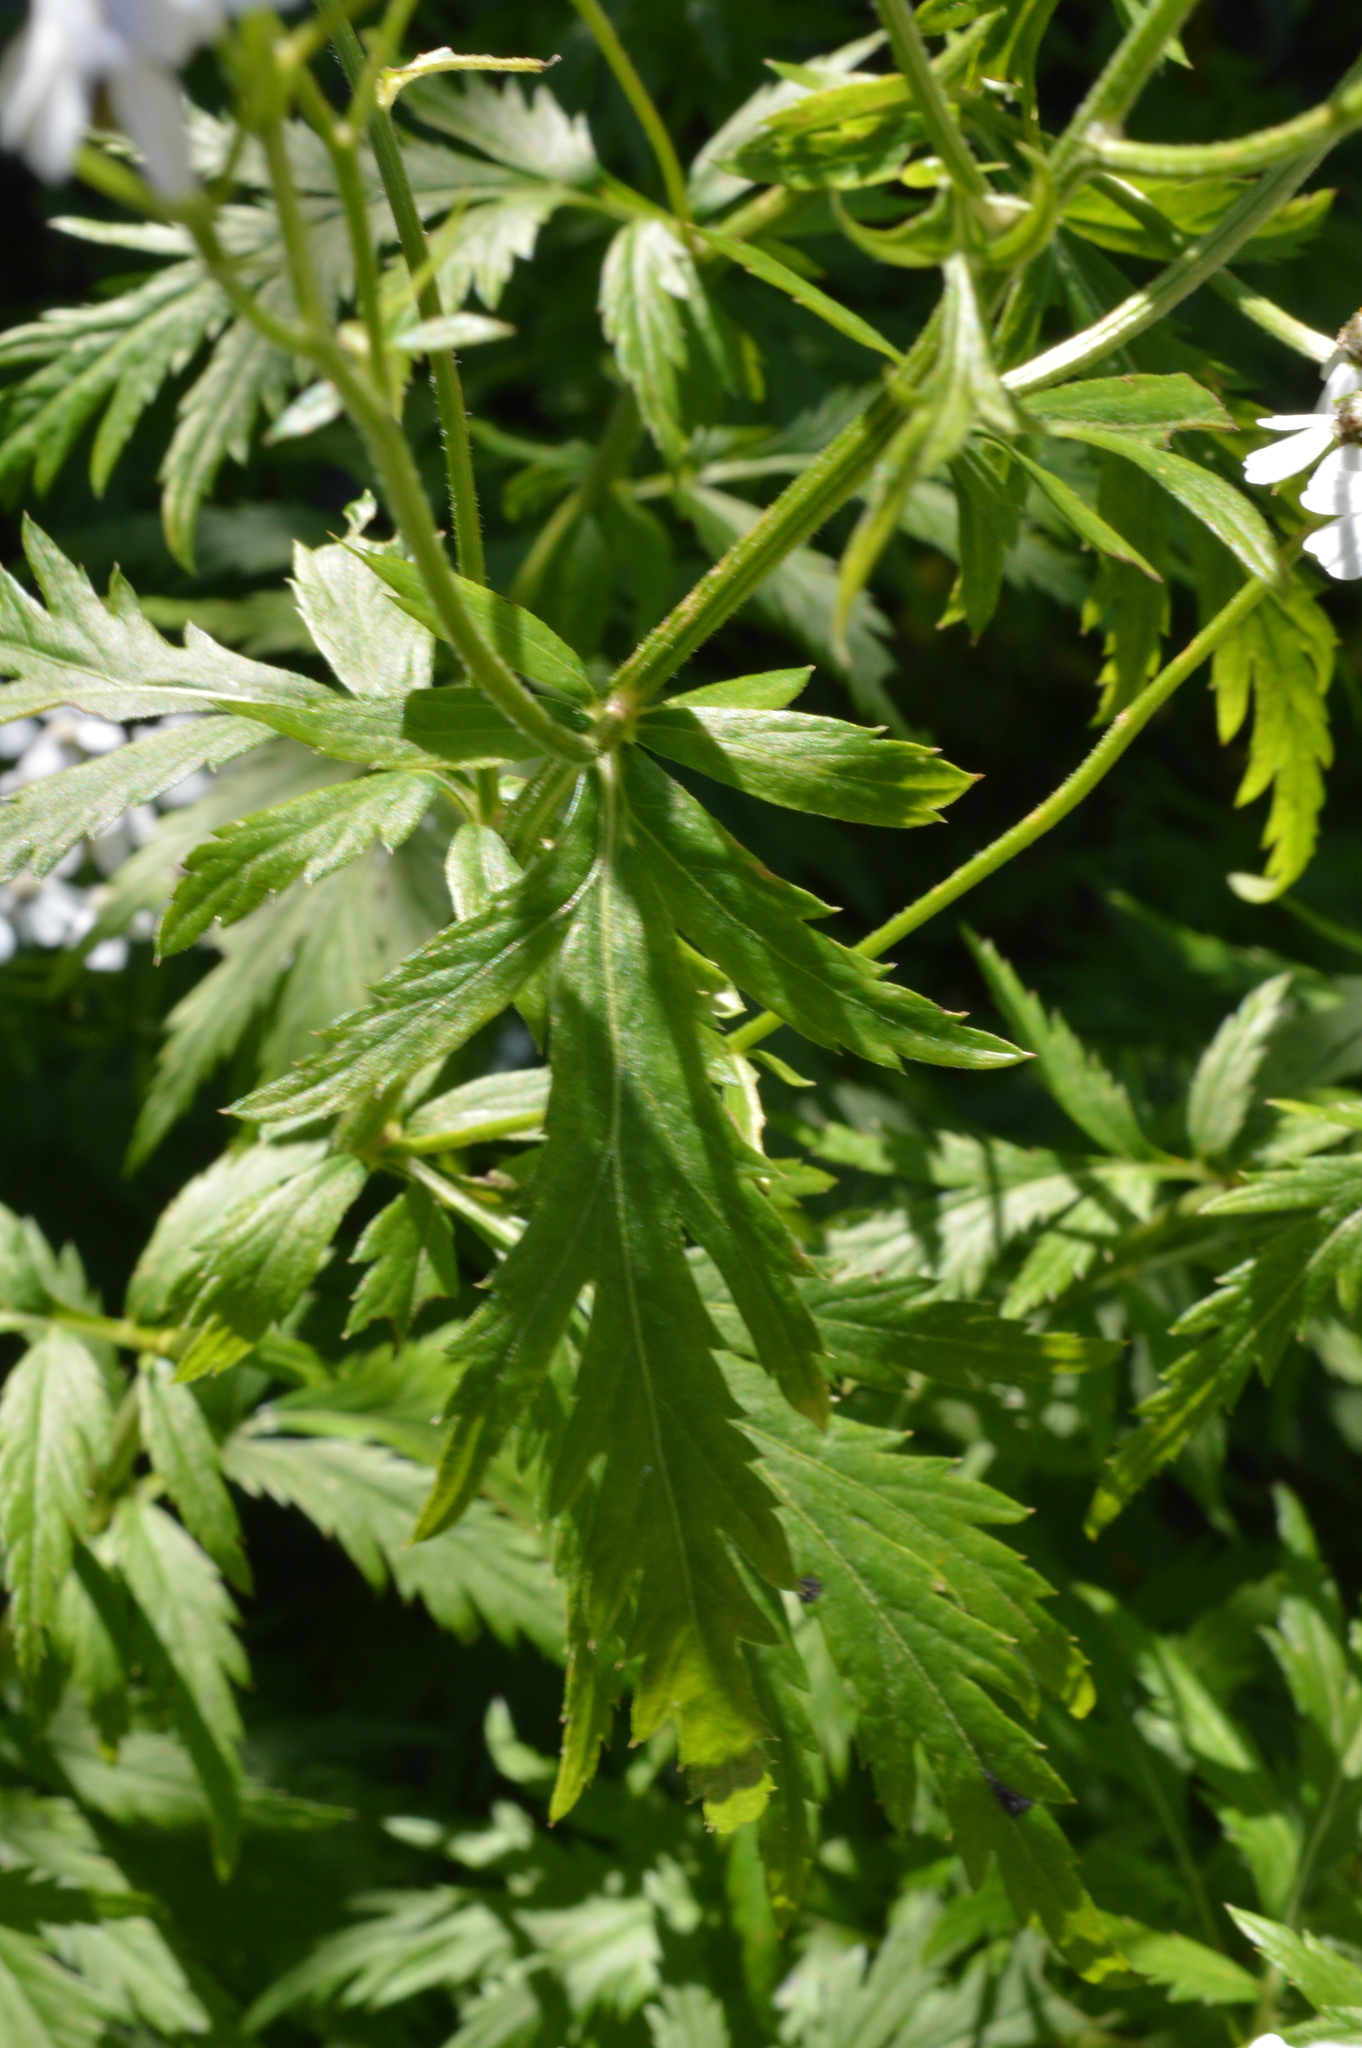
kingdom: Plantae
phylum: Tracheophyta
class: Magnoliopsida
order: Asterales
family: Asteraceae
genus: Achillea
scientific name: Achillea macrophylla
